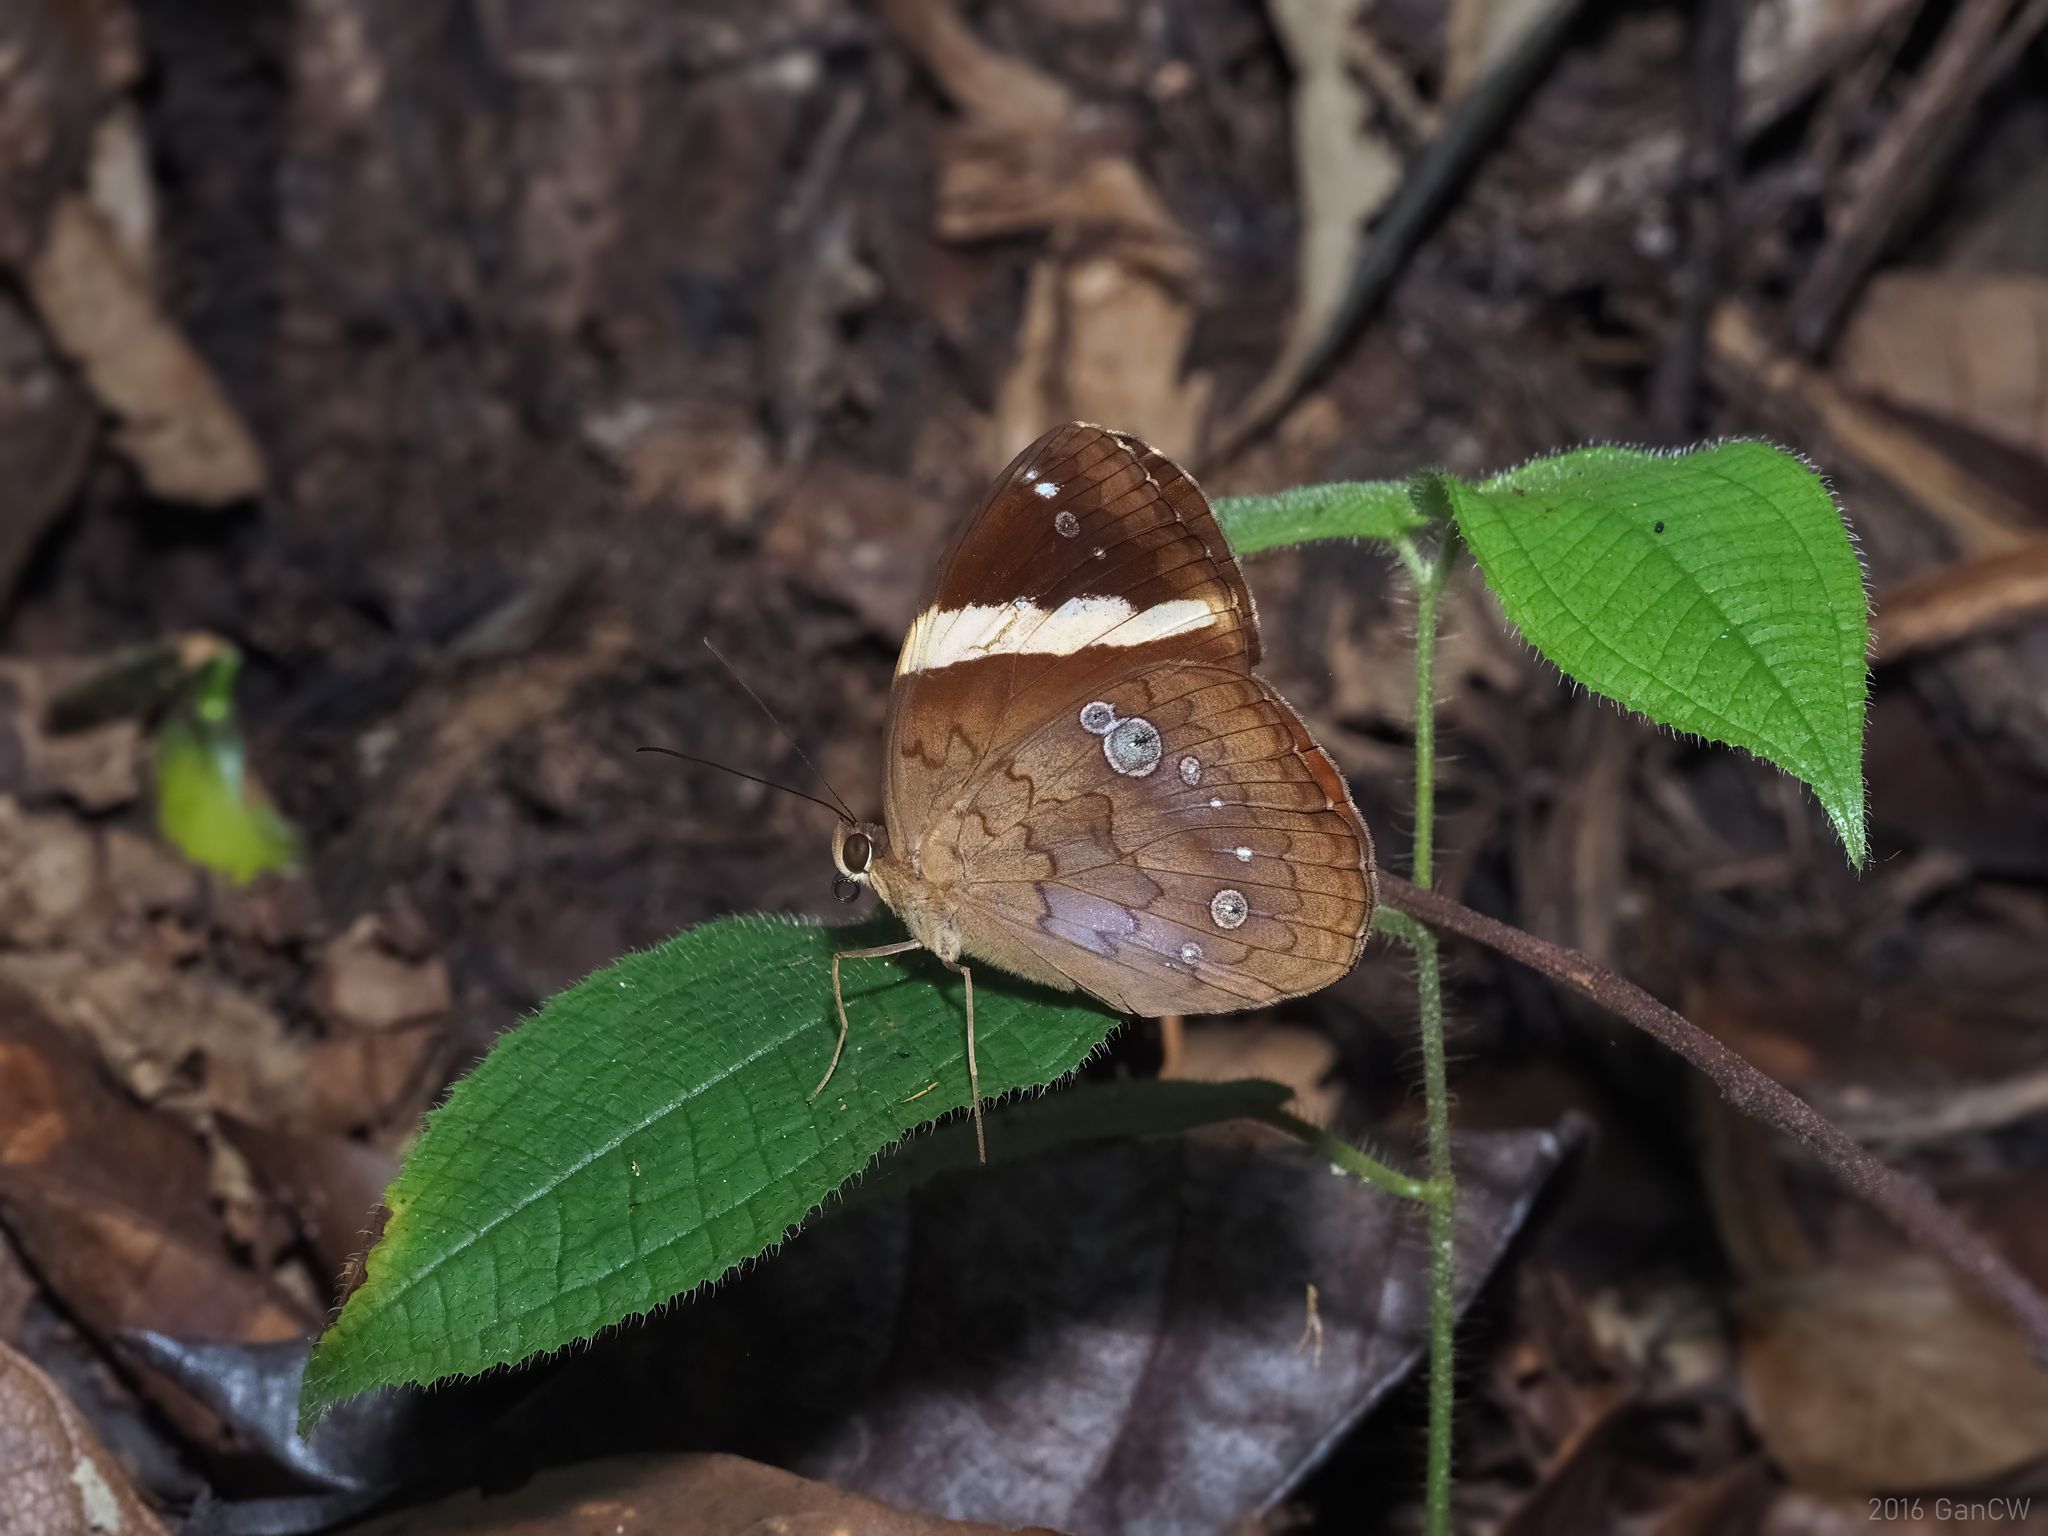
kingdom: Animalia
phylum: Arthropoda
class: Insecta
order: Lepidoptera
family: Nymphalidae
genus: Xanthotaenia
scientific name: Xanthotaenia busiris
